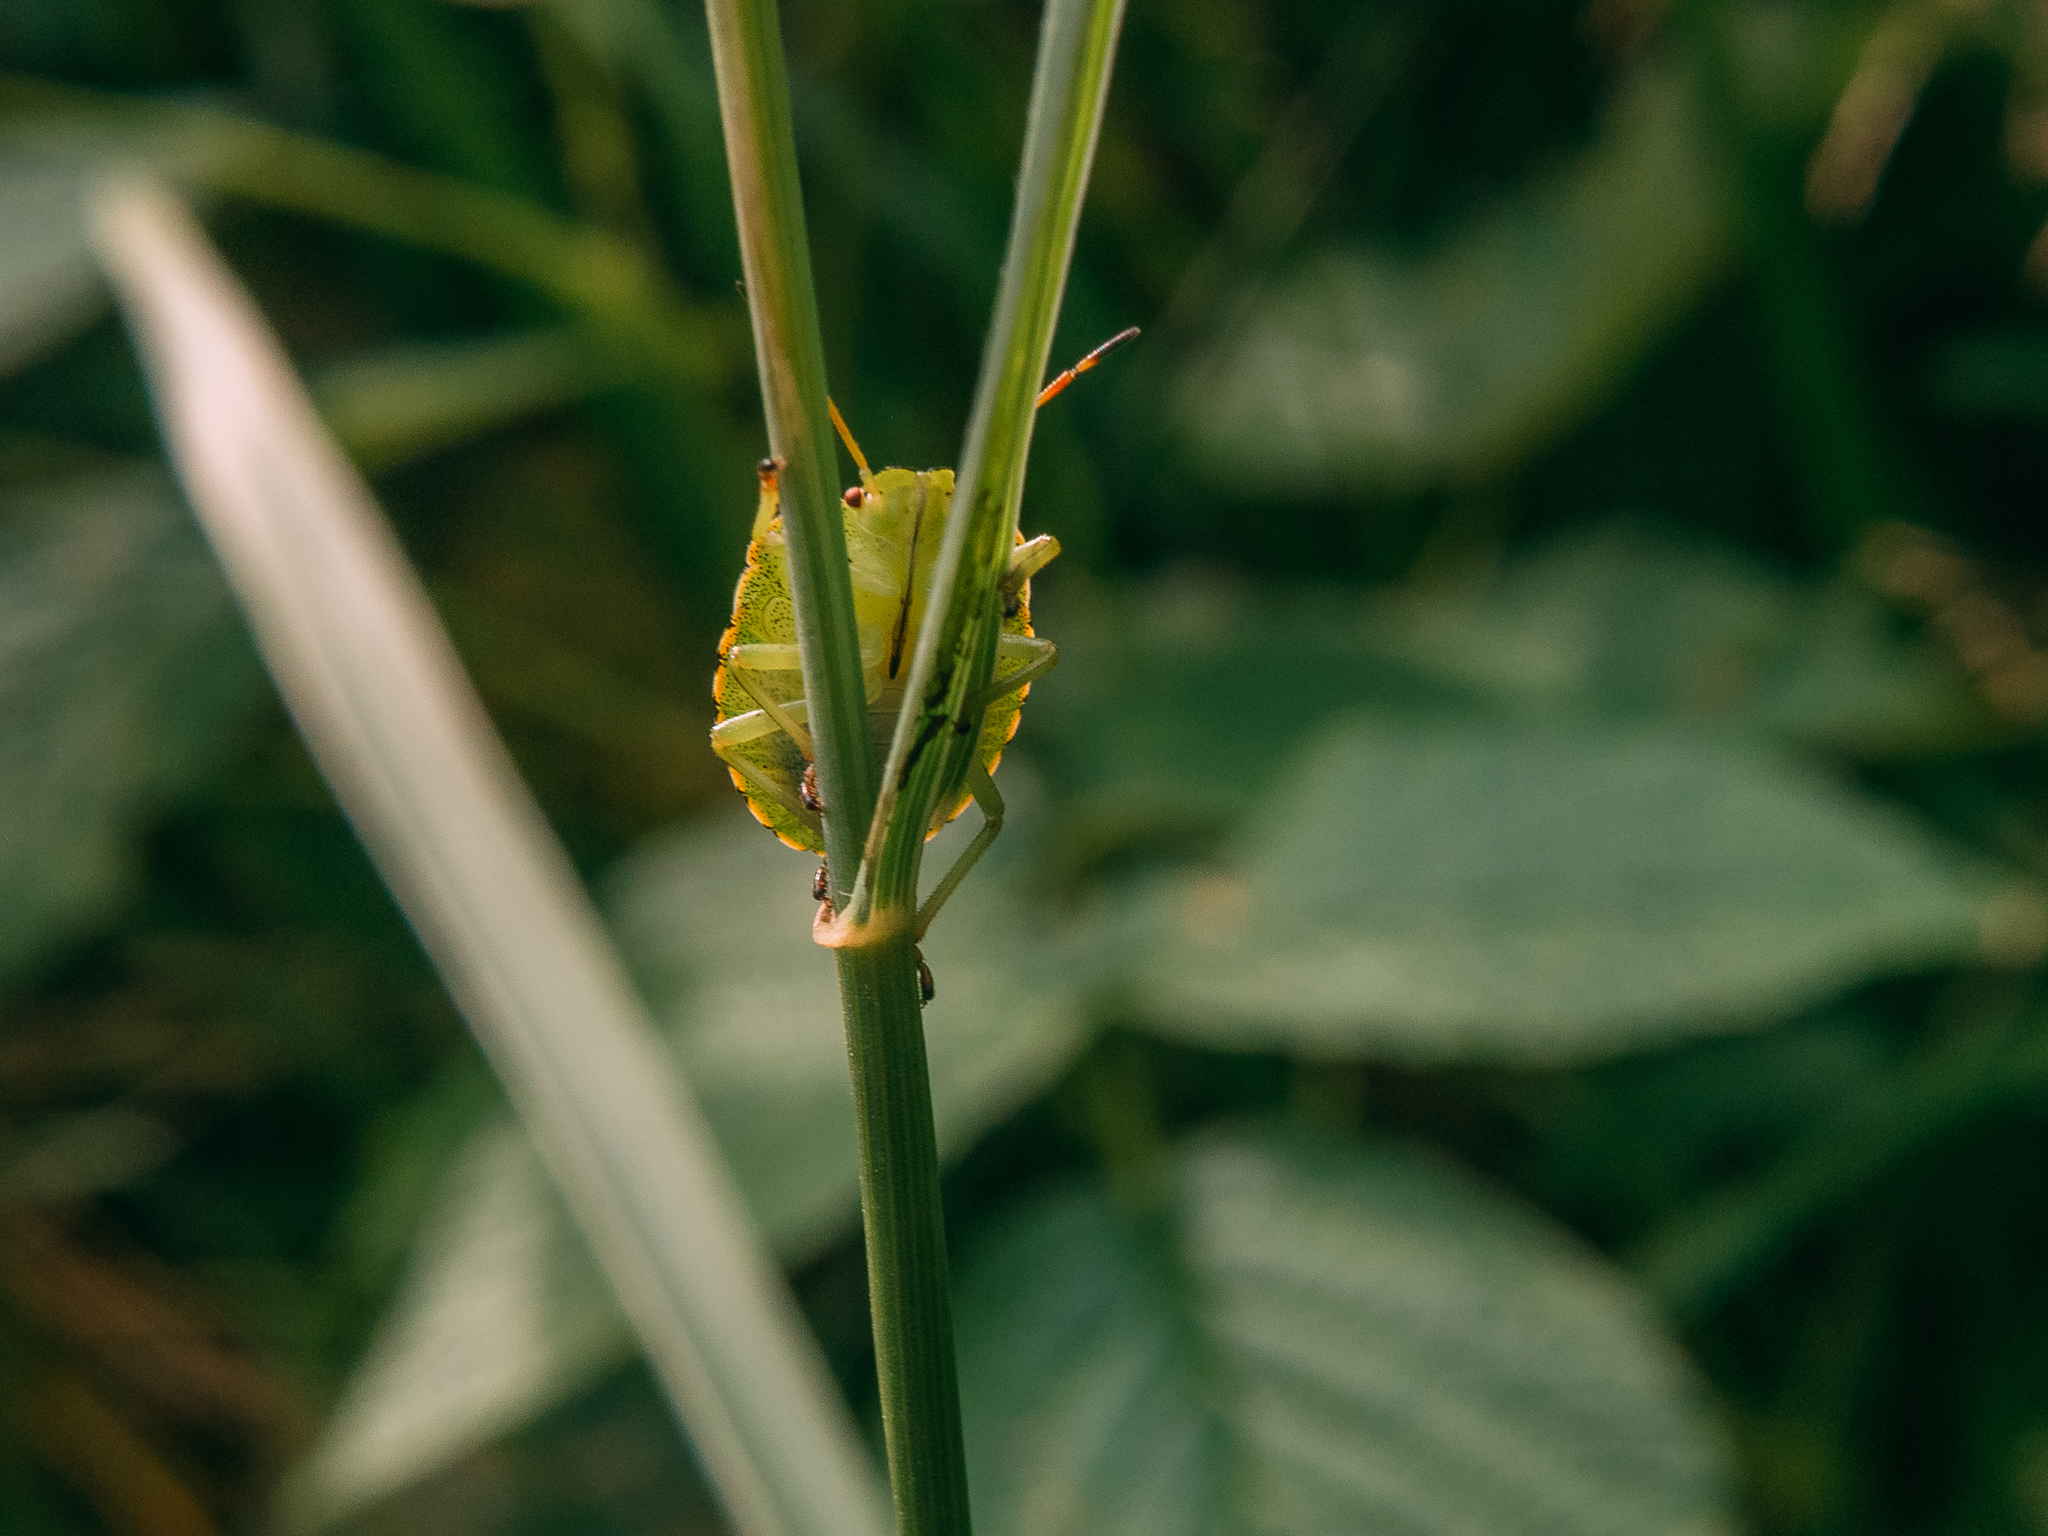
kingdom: Animalia
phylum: Arthropoda
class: Insecta
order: Hemiptera
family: Pentatomidae
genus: Palomena
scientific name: Palomena prasina
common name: Green shieldbug
